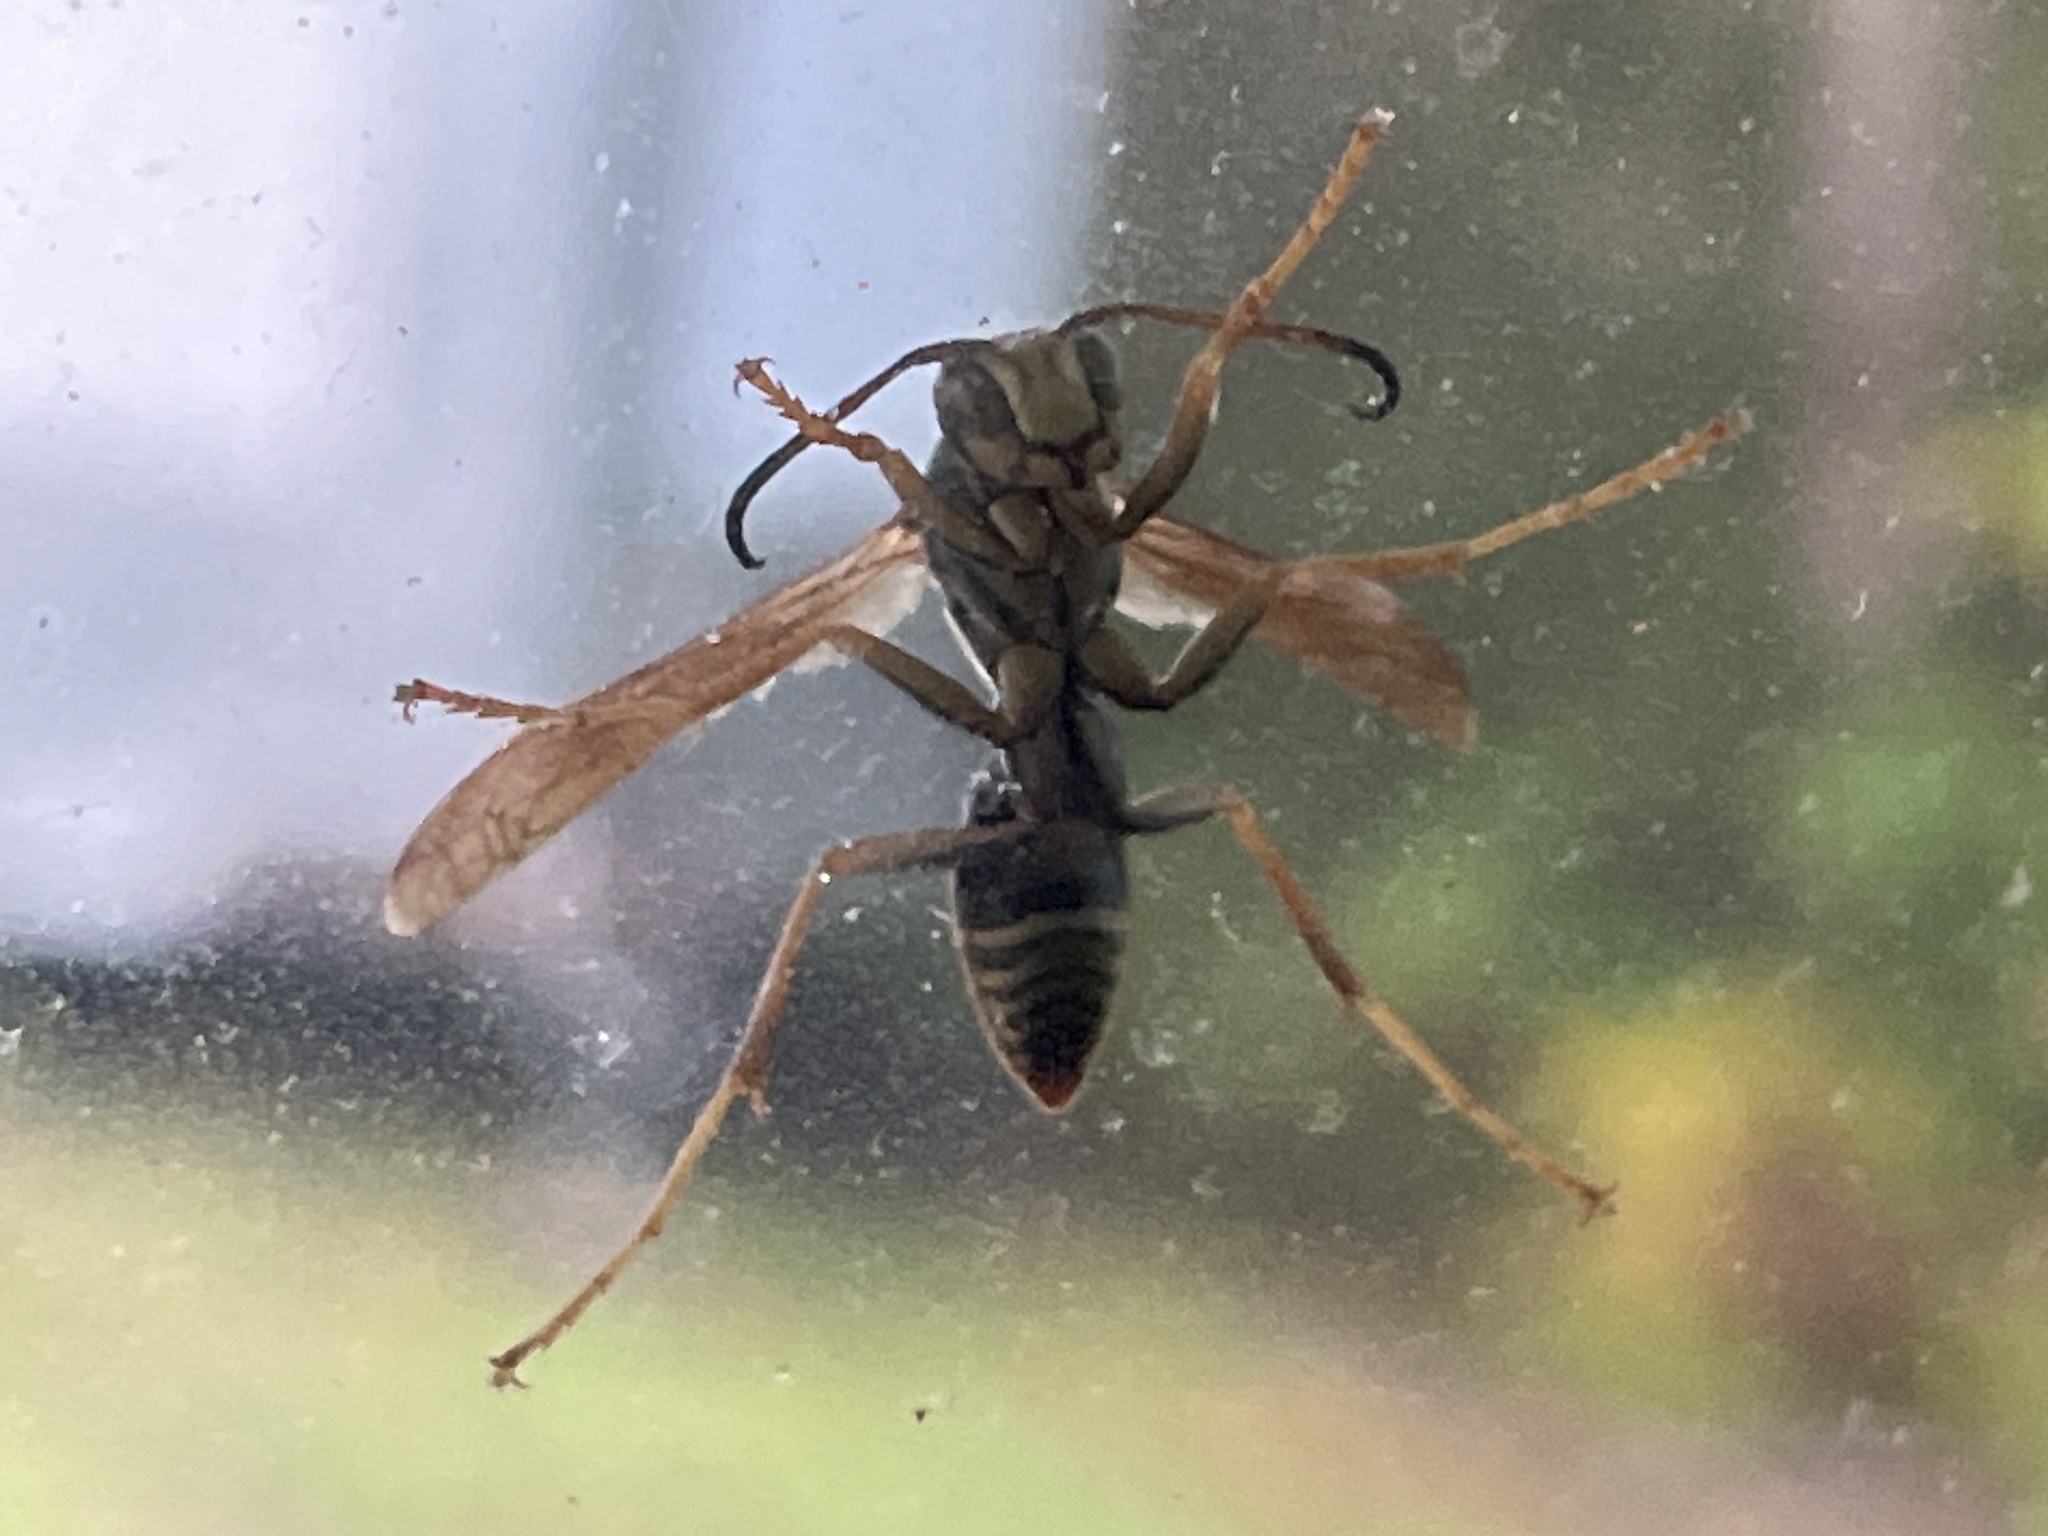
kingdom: Animalia
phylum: Arthropoda
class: Insecta
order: Hymenoptera
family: Eumenidae
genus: Polistes
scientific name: Polistes fuscatus
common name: Dark paper wasp
